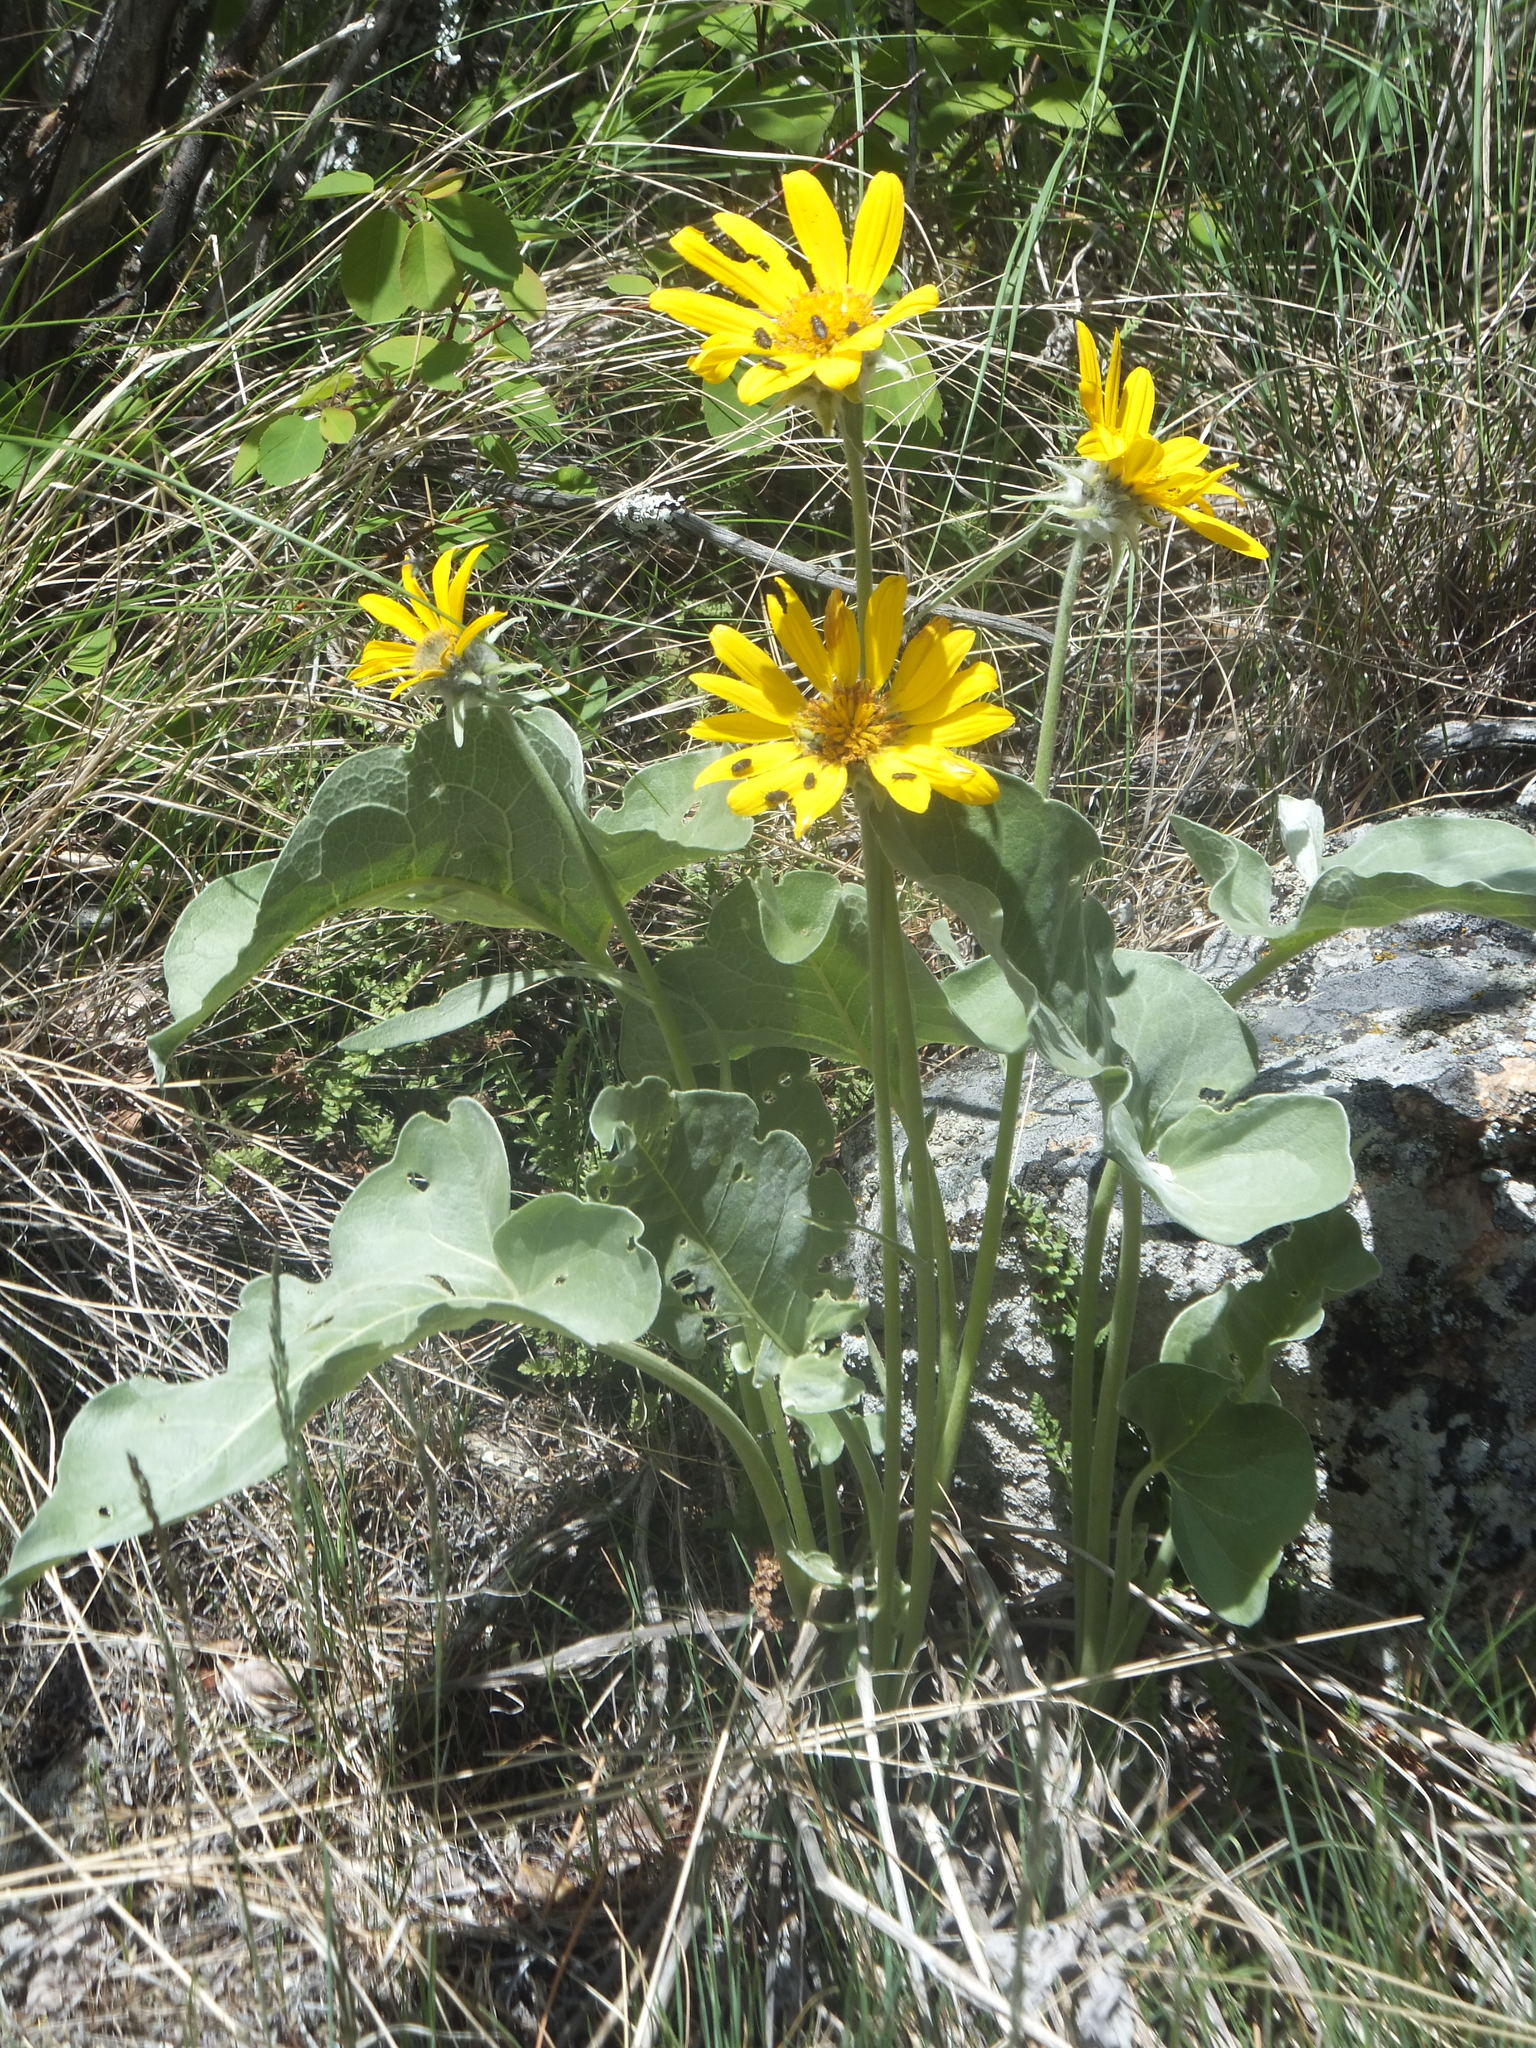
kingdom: Plantae
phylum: Tracheophyta
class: Magnoliopsida
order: Asterales
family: Asteraceae
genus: Wyethia
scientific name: Wyethia sagittata
